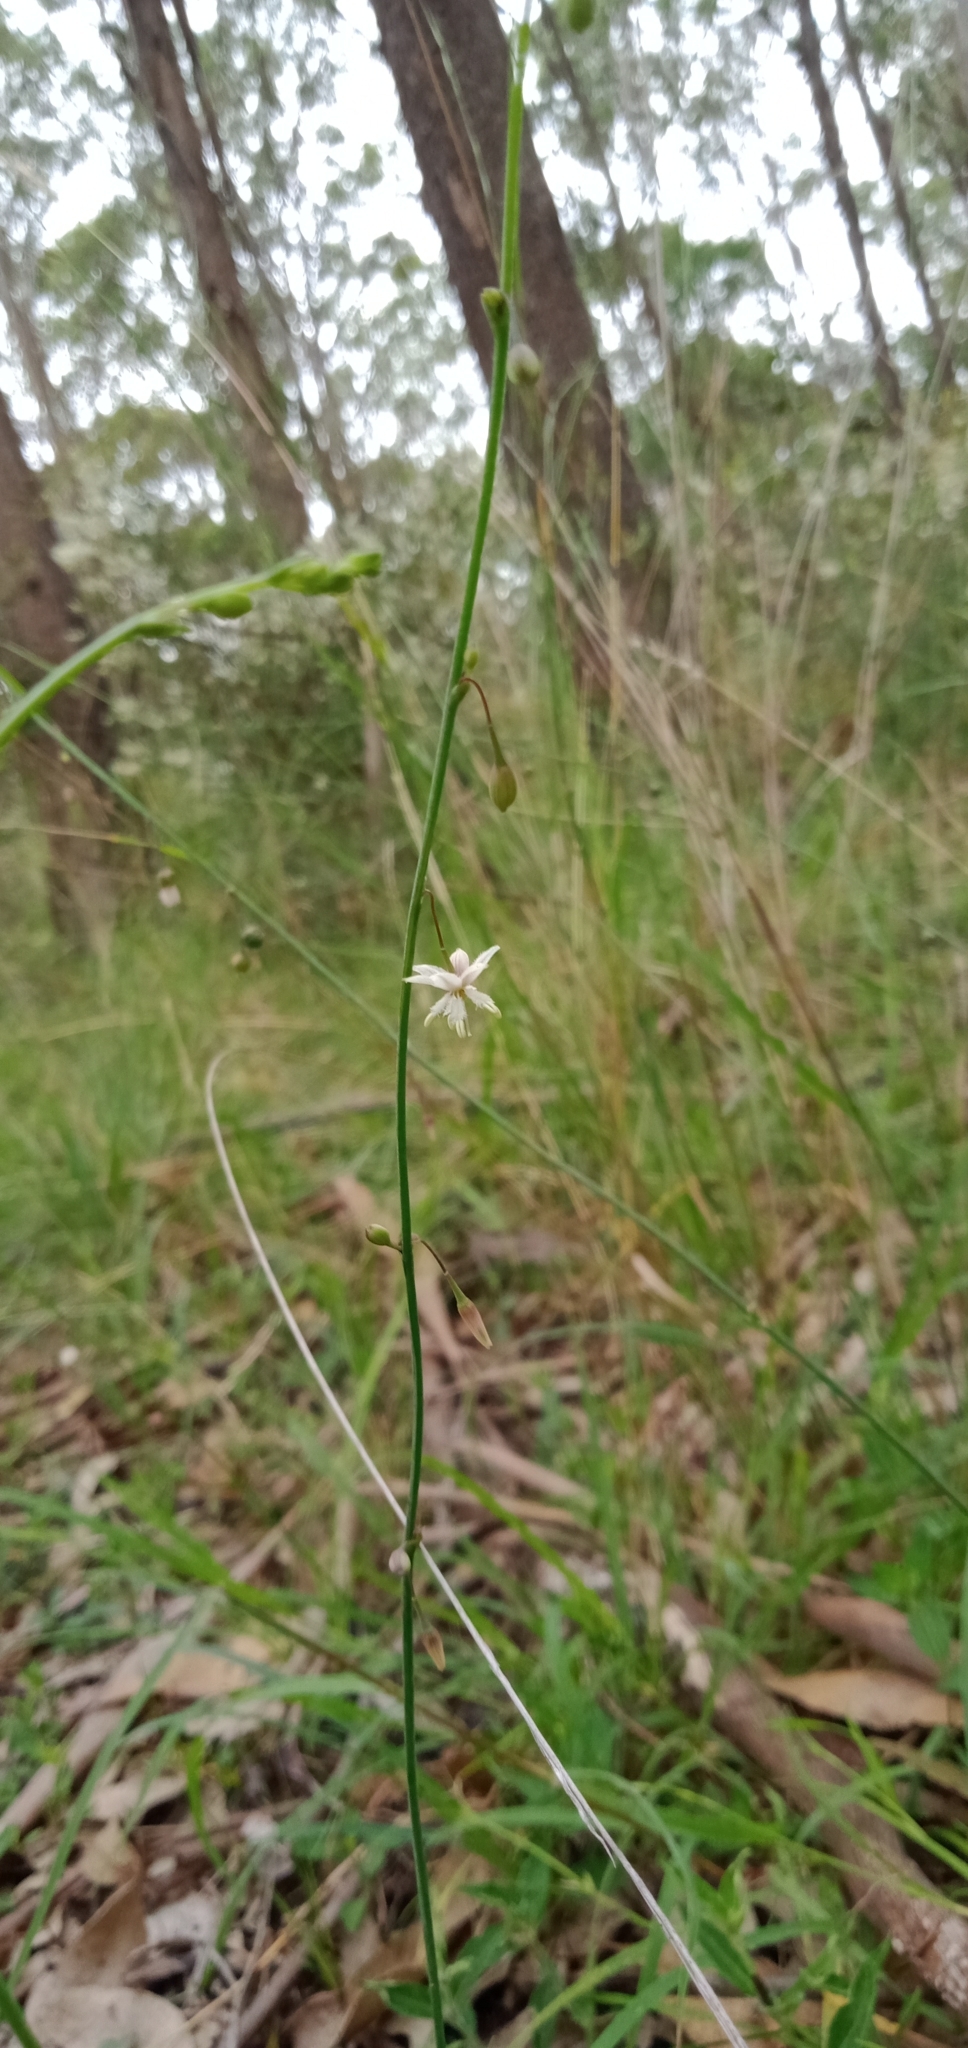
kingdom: Plantae
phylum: Tracheophyta
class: Liliopsida
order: Asparagales
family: Asparagaceae
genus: Arthropodium
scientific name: Arthropodium milleflorum
